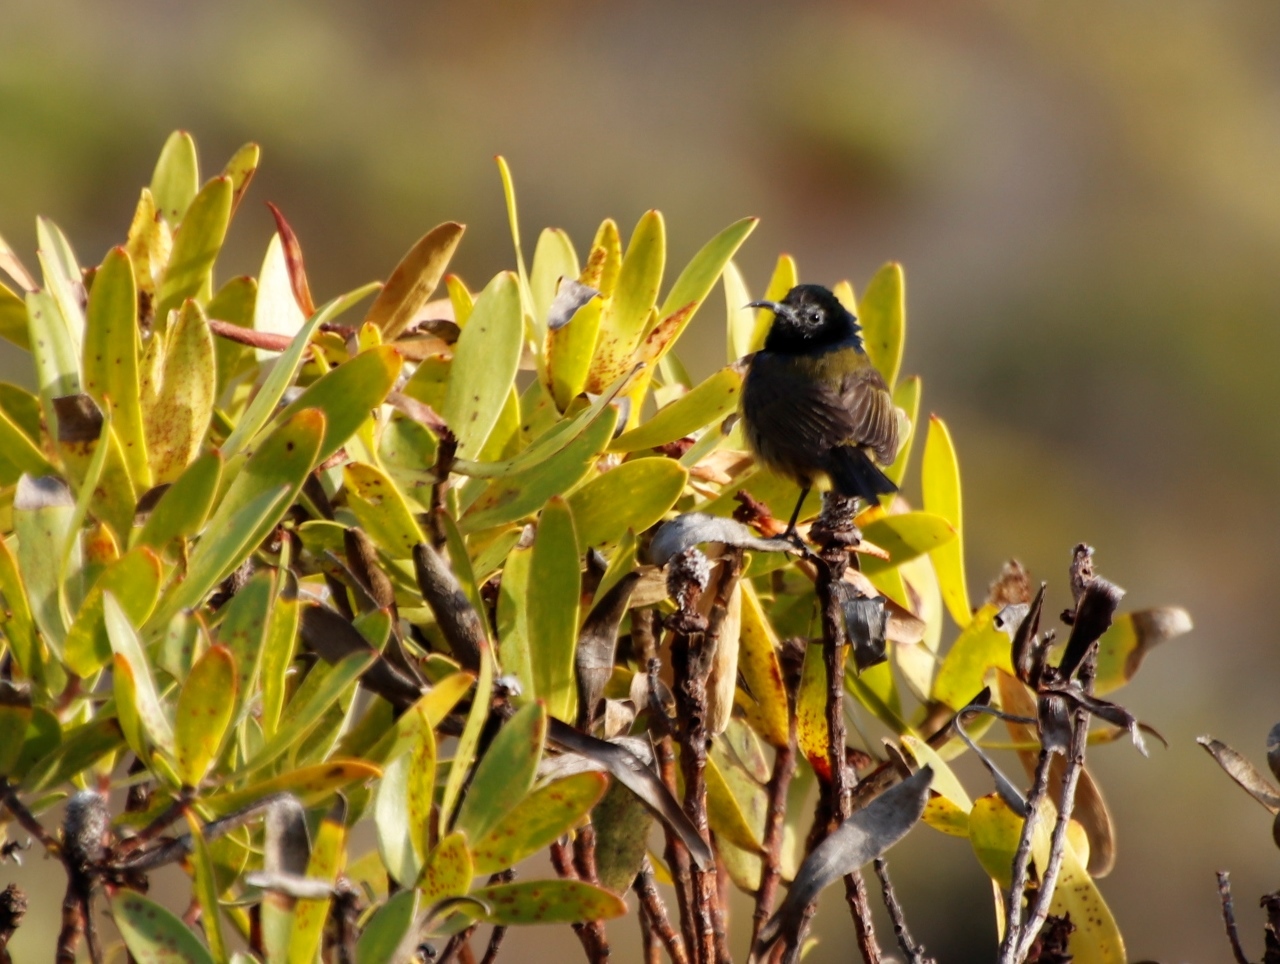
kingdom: Animalia
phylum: Chordata
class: Aves
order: Passeriformes
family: Nectariniidae
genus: Anthobaphes
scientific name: Anthobaphes violacea
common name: Orange-breasted sunbird
